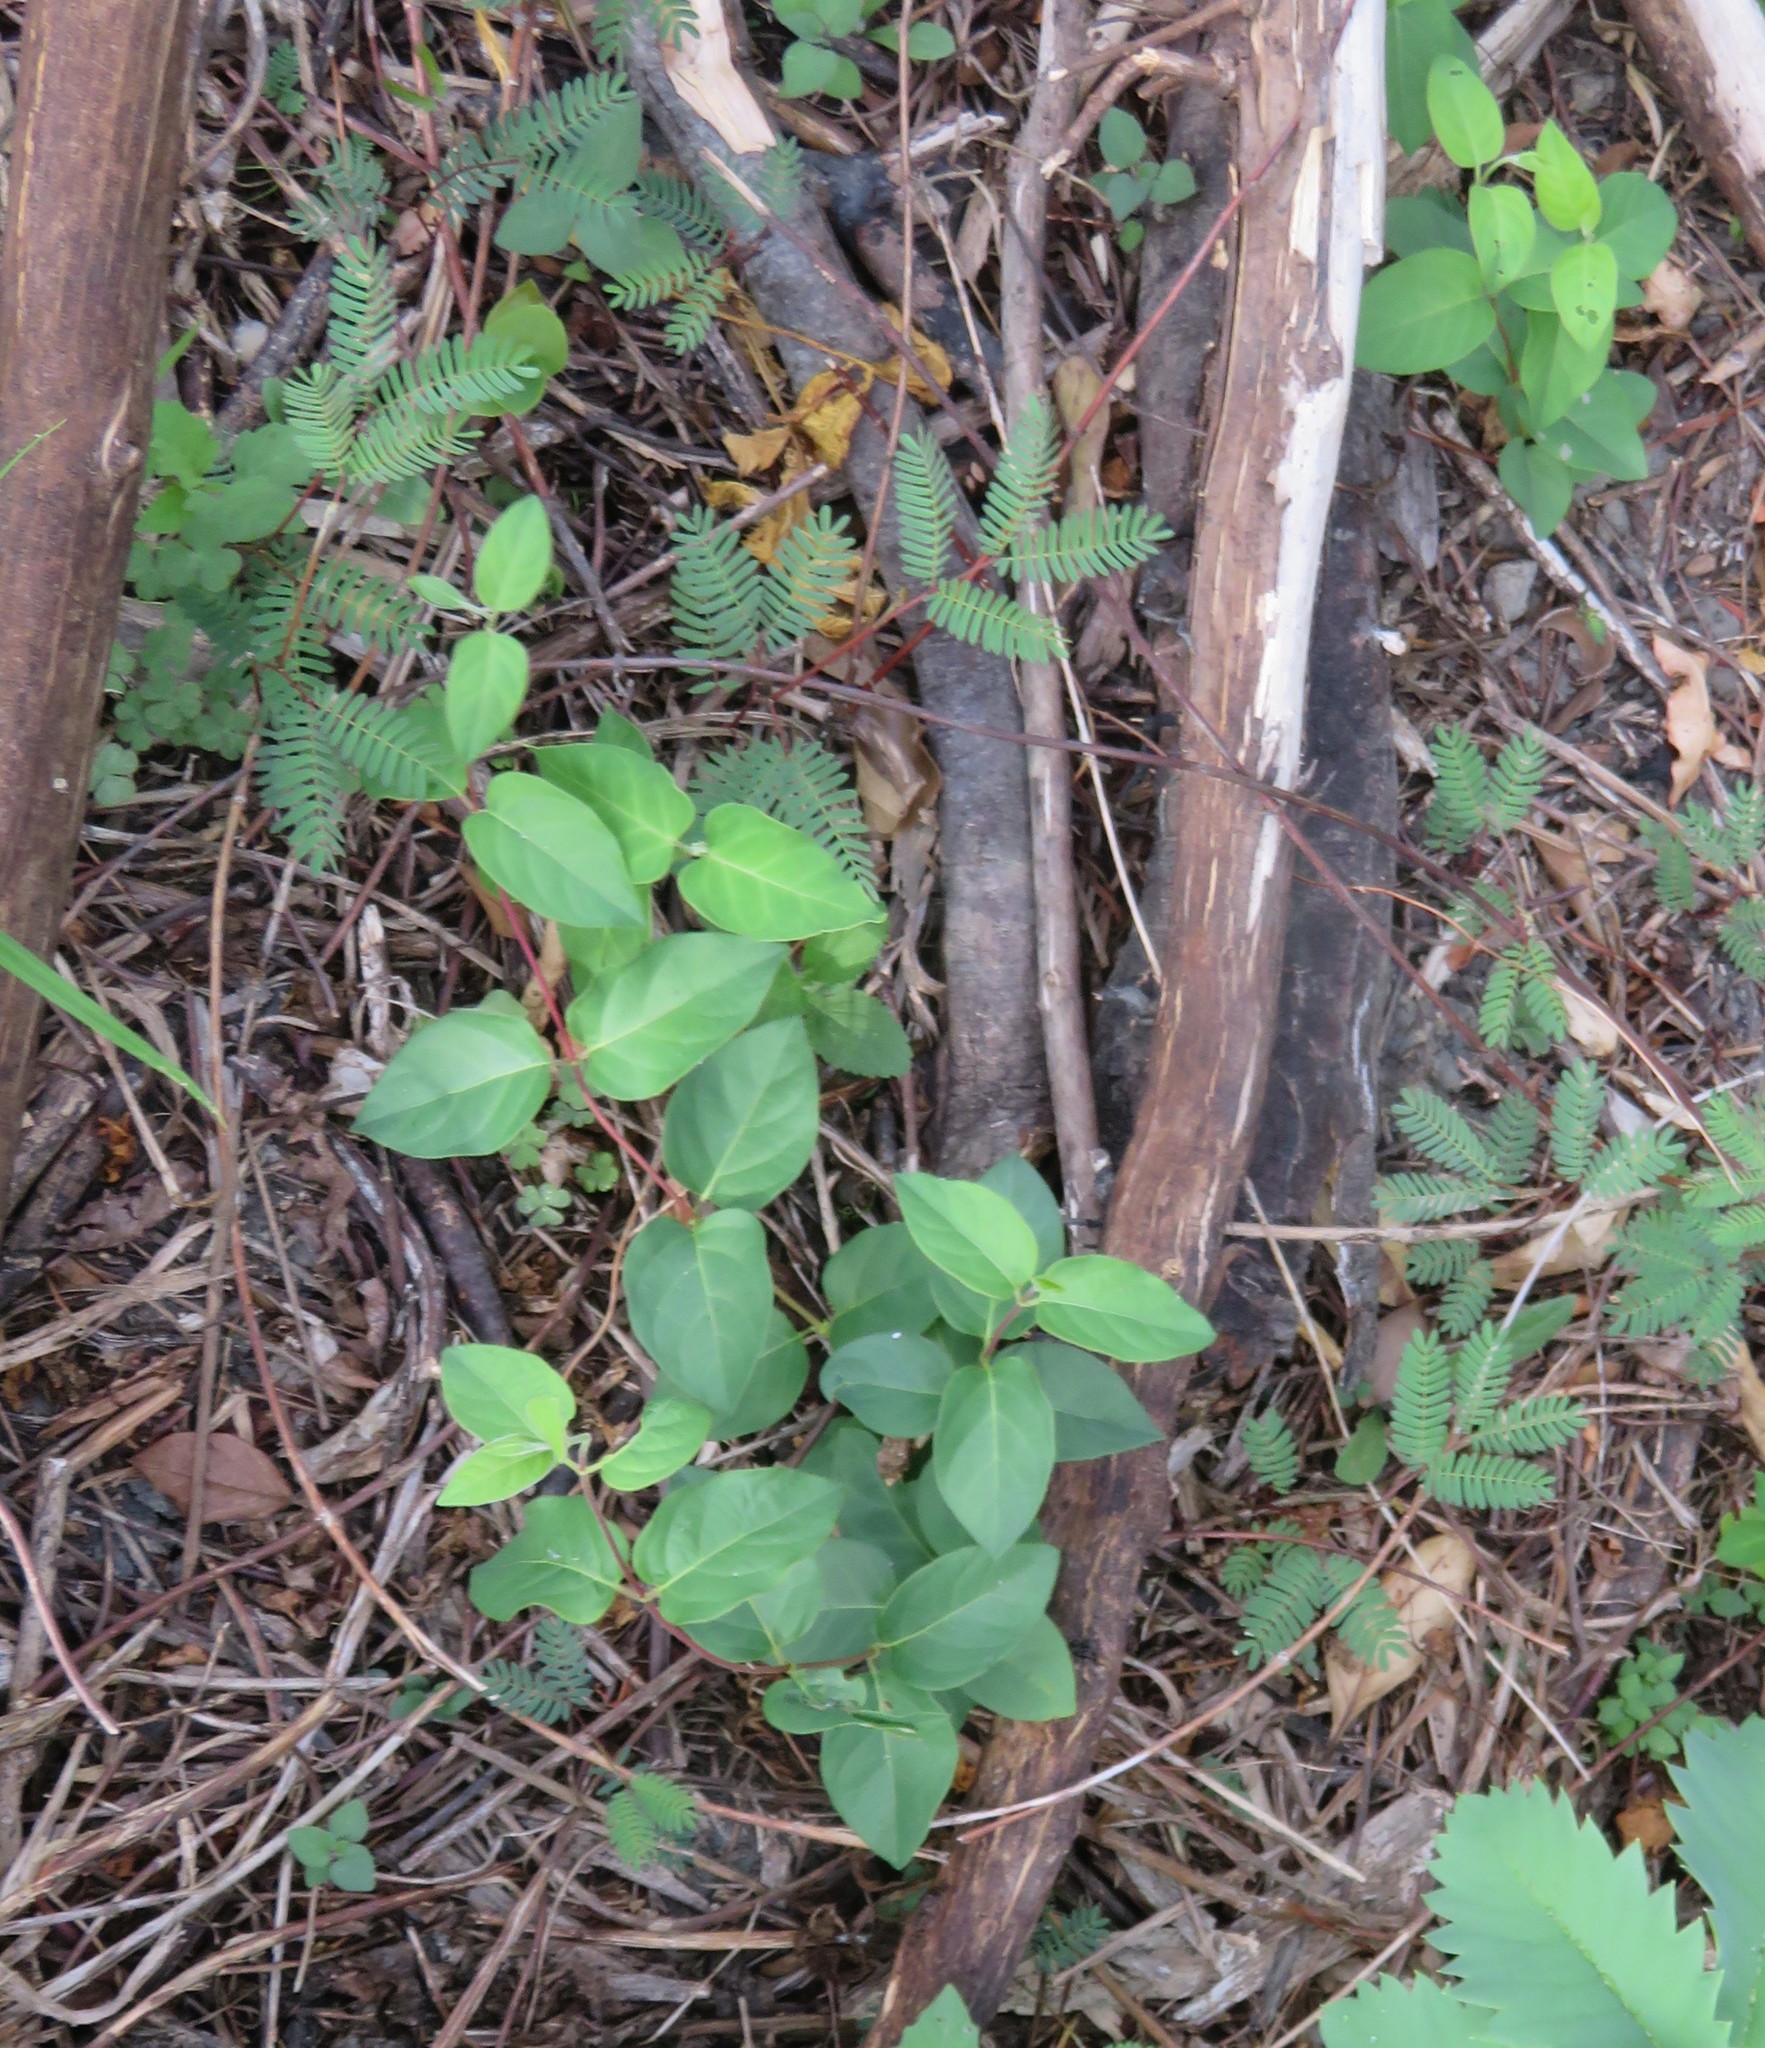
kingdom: Plantae
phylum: Tracheophyta
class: Magnoliopsida
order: Fabales
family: Fabaceae
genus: Paraserianthes
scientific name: Paraserianthes lophantha
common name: Plume albizia
